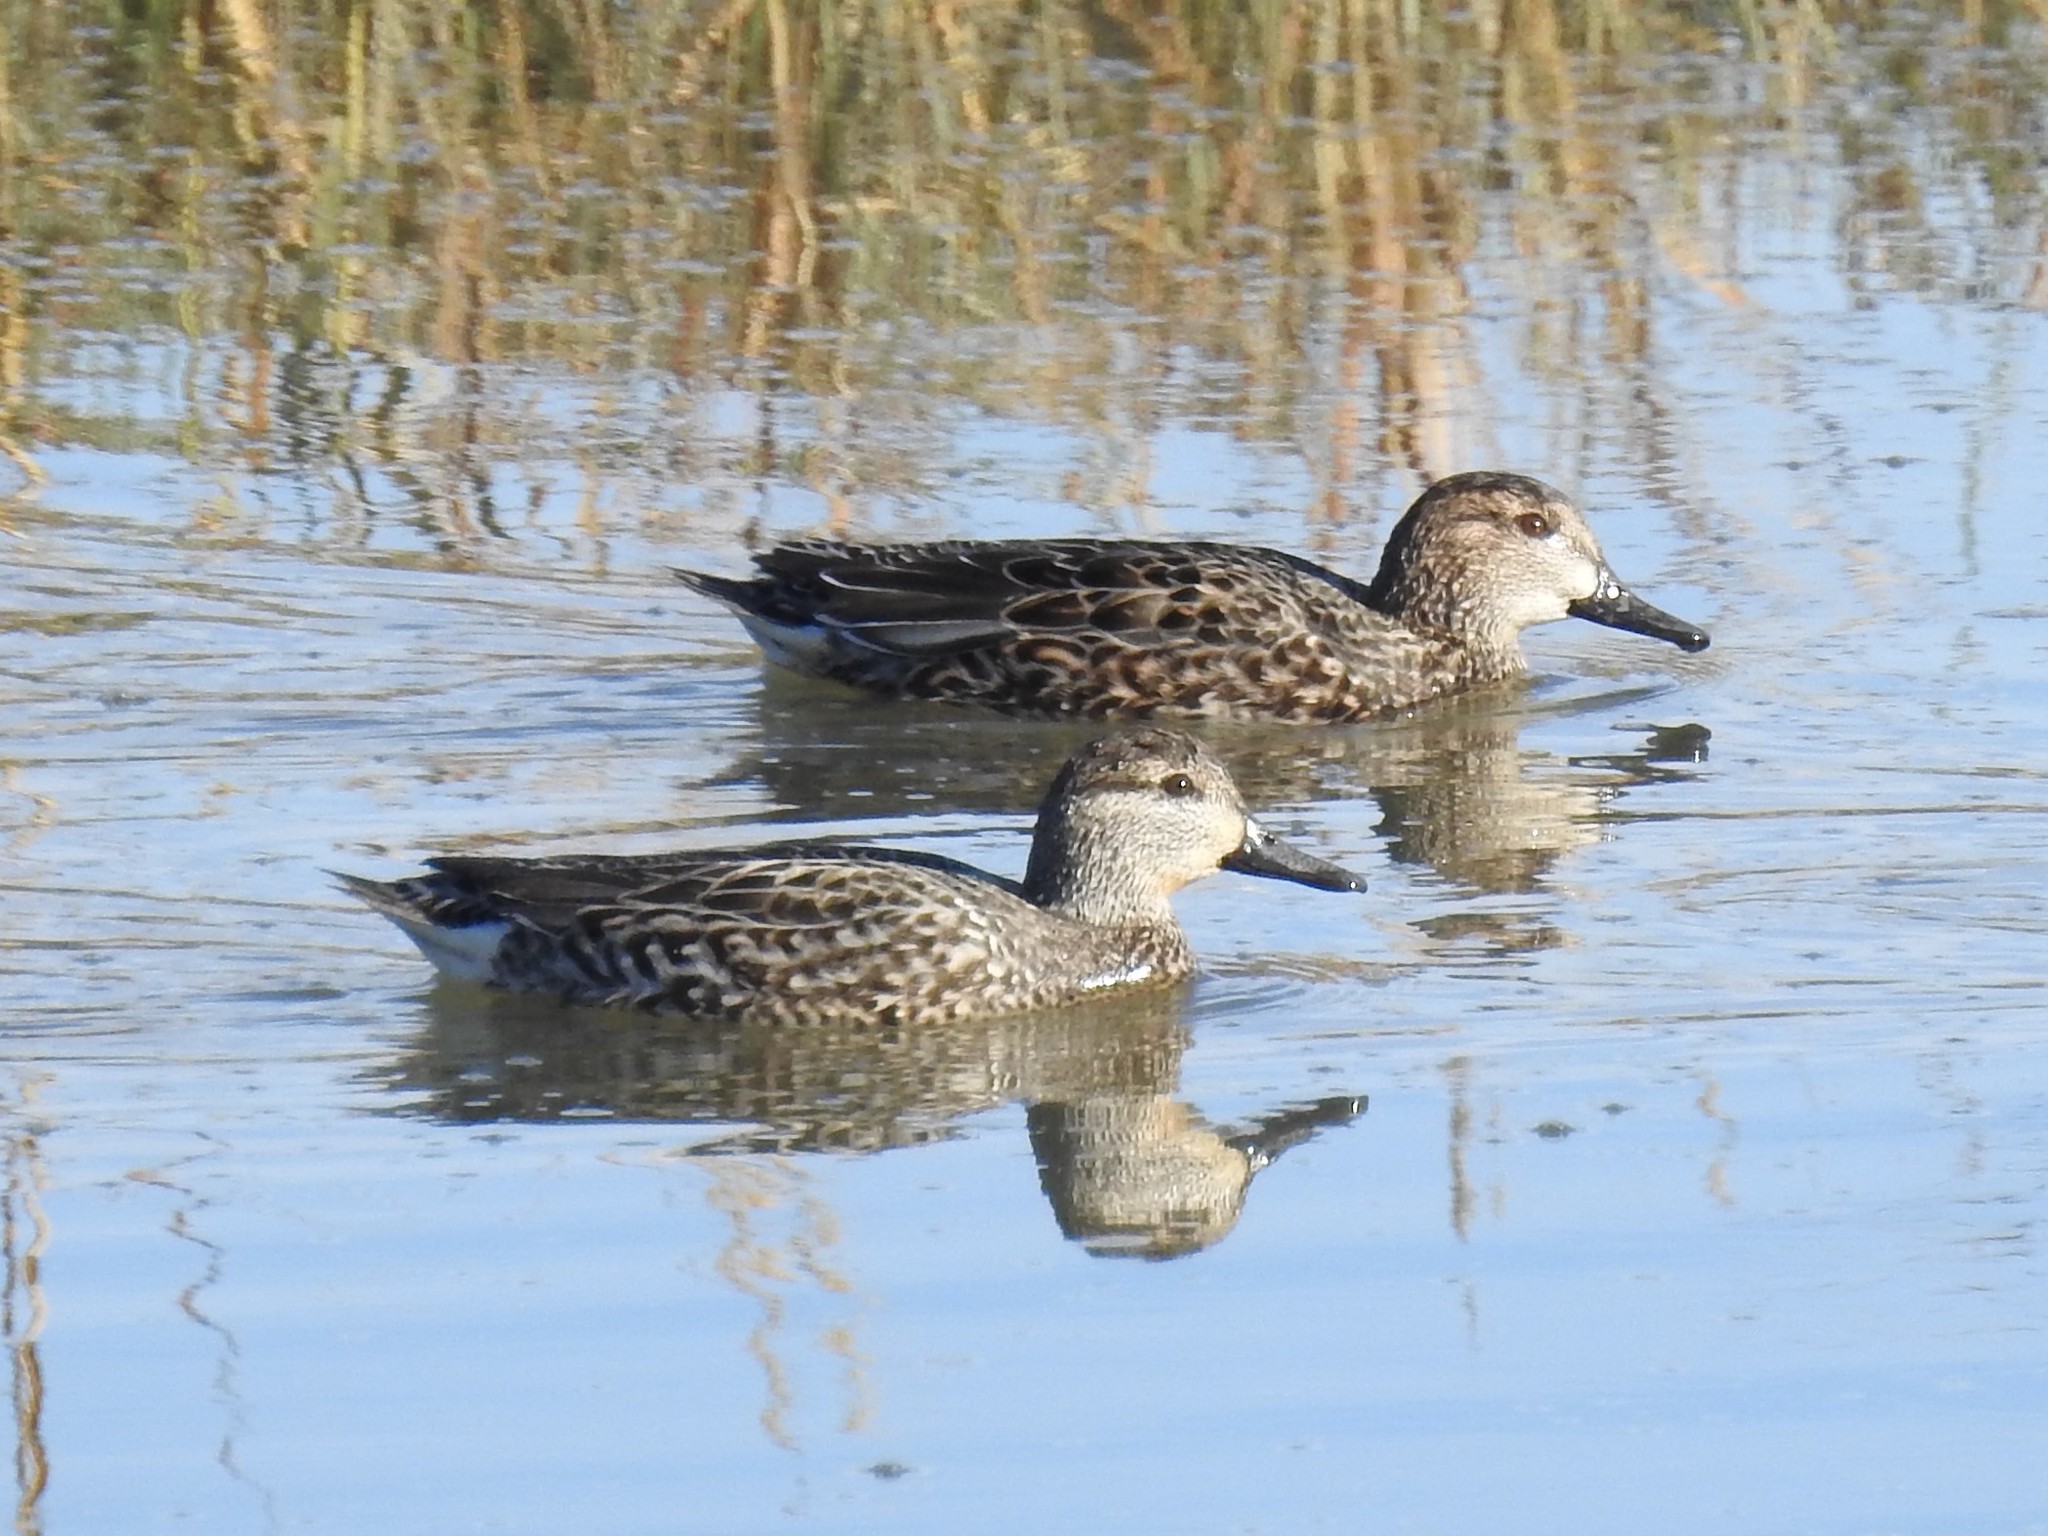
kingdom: Animalia
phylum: Chordata
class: Aves
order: Anseriformes
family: Anatidae
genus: Anas
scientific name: Anas crecca
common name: Eurasian teal
